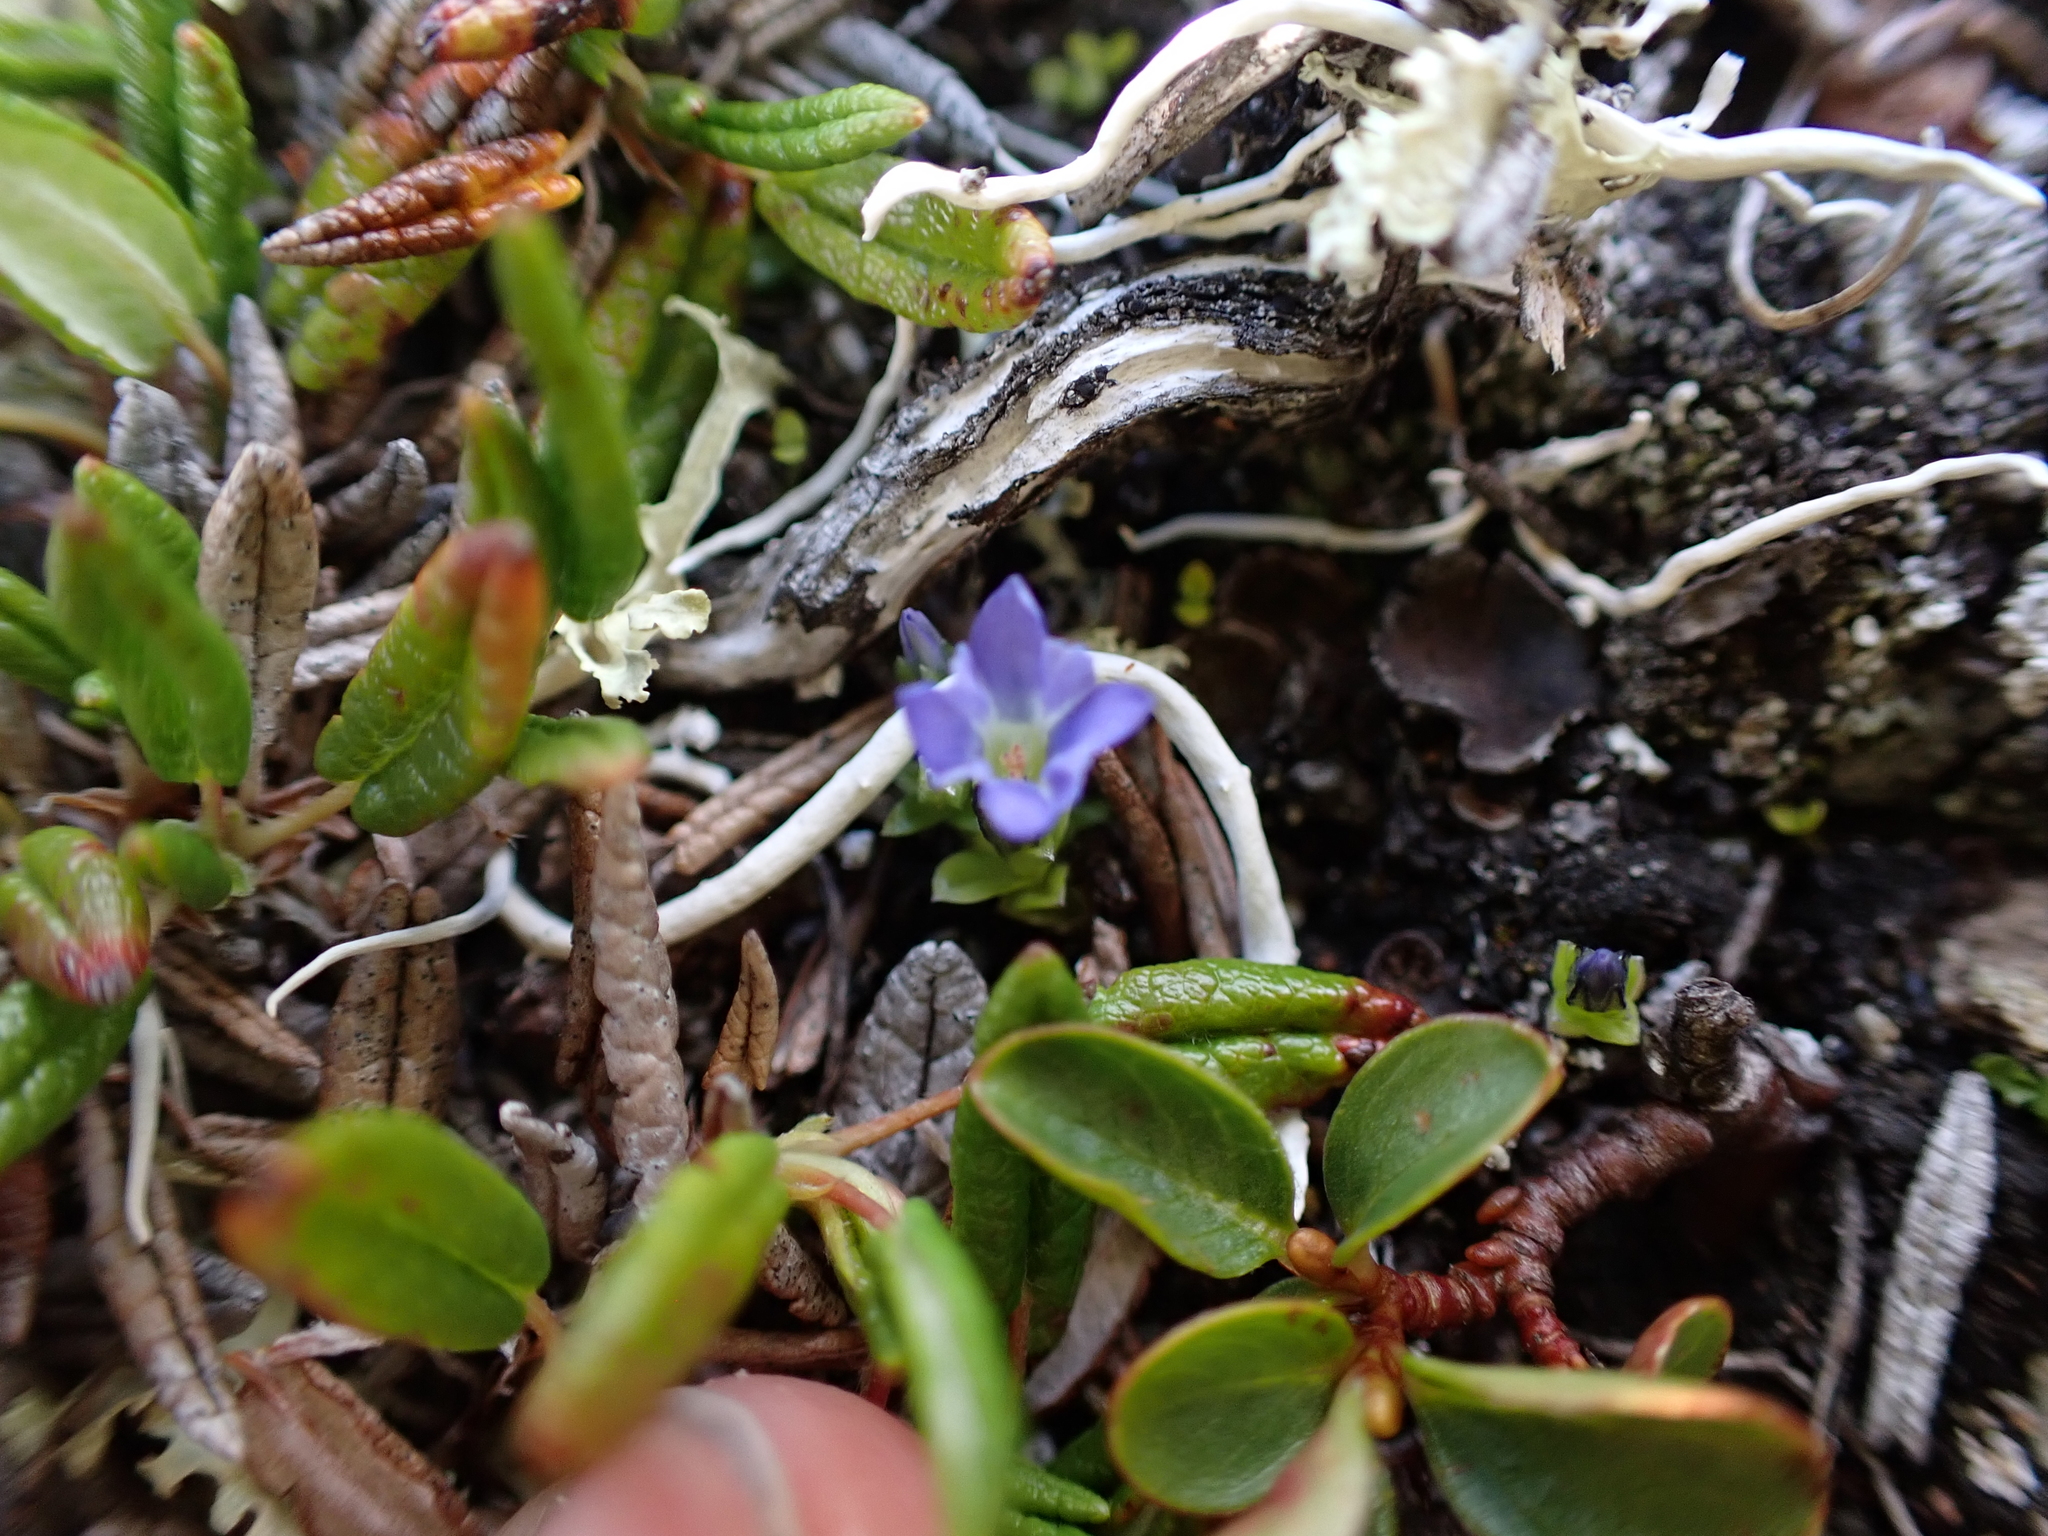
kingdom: Plantae
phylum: Tracheophyta
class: Magnoliopsida
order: Gentianales
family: Gentianaceae
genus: Gentiana
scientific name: Gentiana prostrata
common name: Moss gentian
